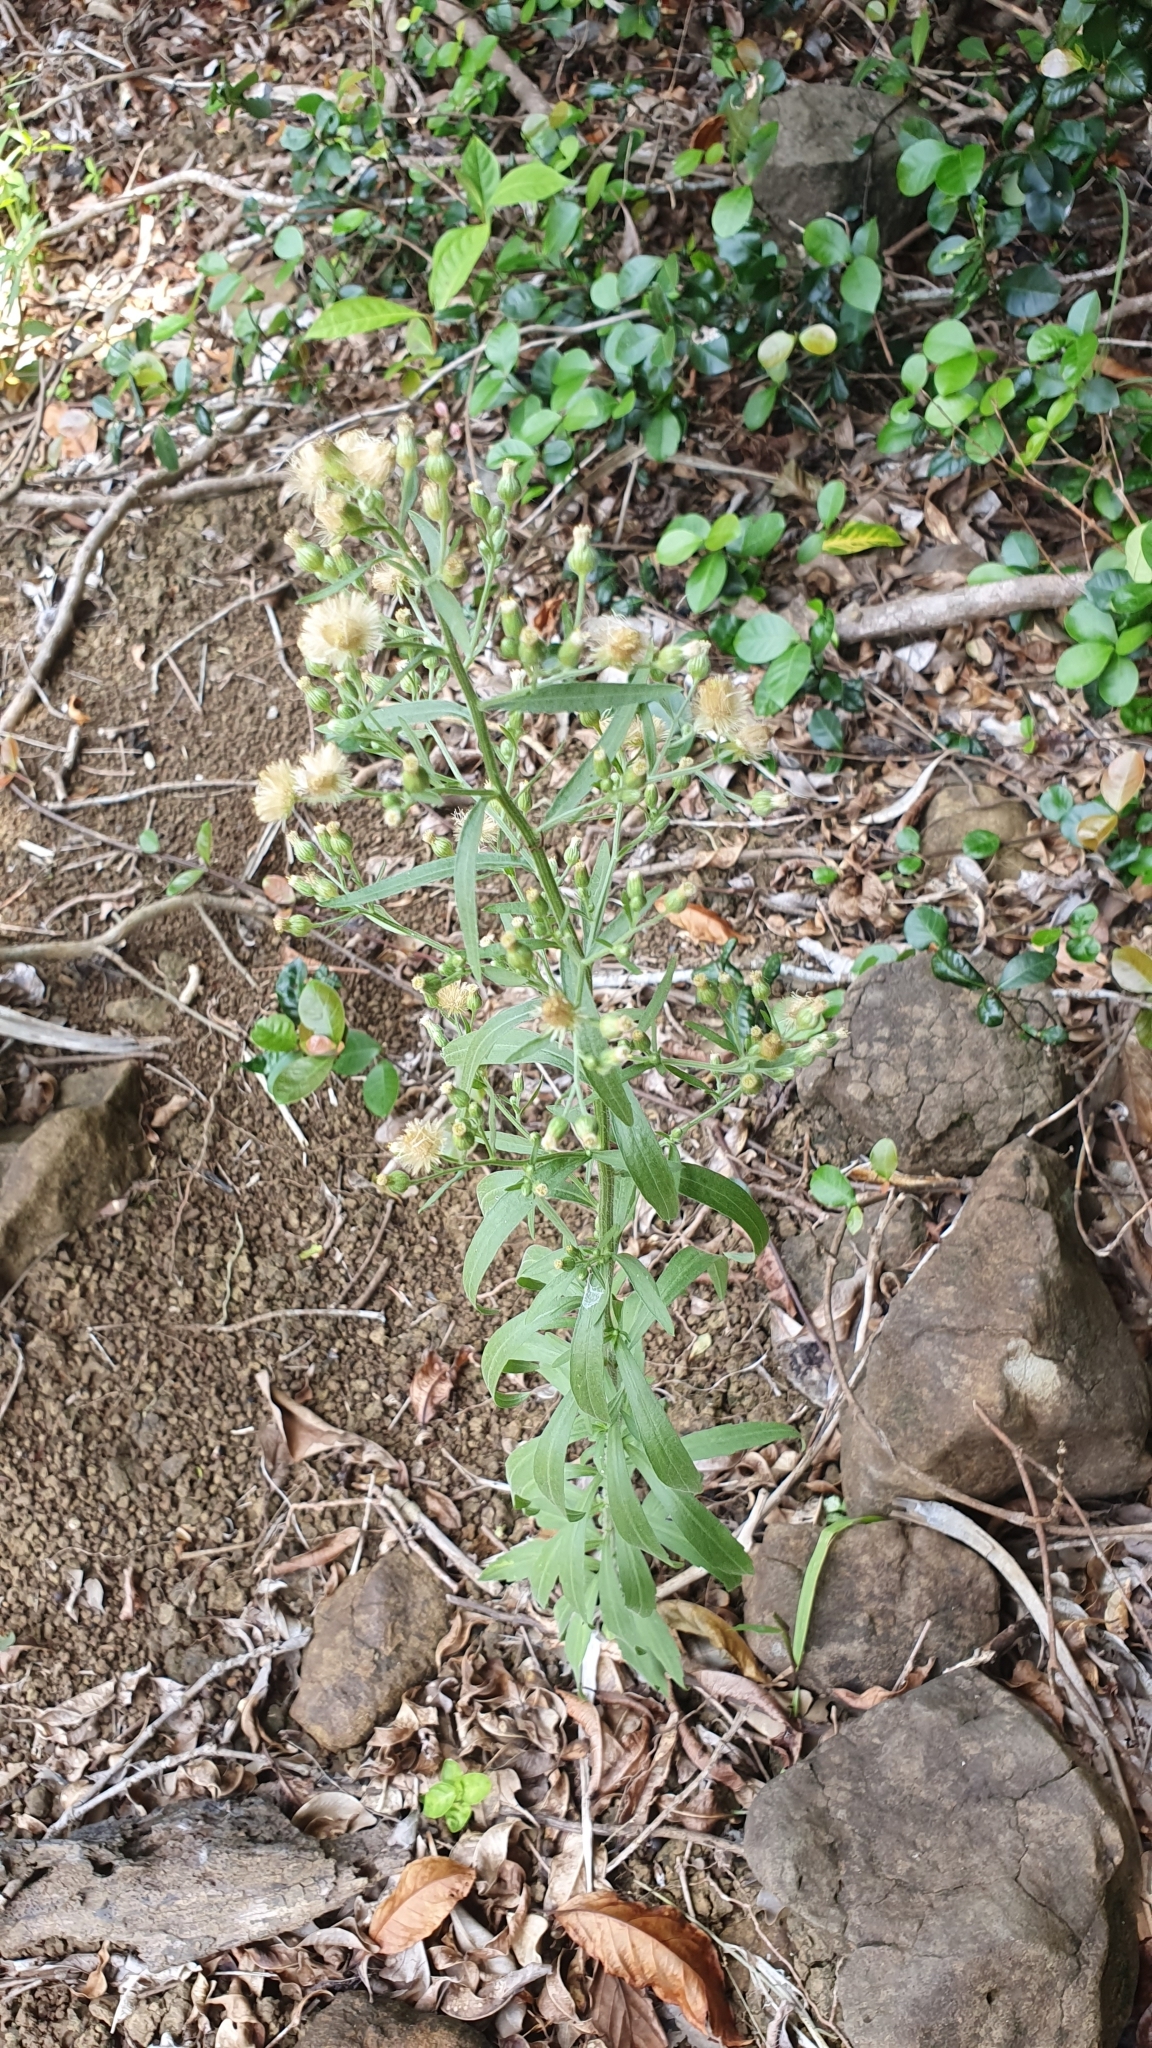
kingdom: Plantae
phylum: Tracheophyta
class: Magnoliopsida
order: Asterales
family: Asteraceae
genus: Erigeron
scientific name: Erigeron sumatrensis
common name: Daisy
